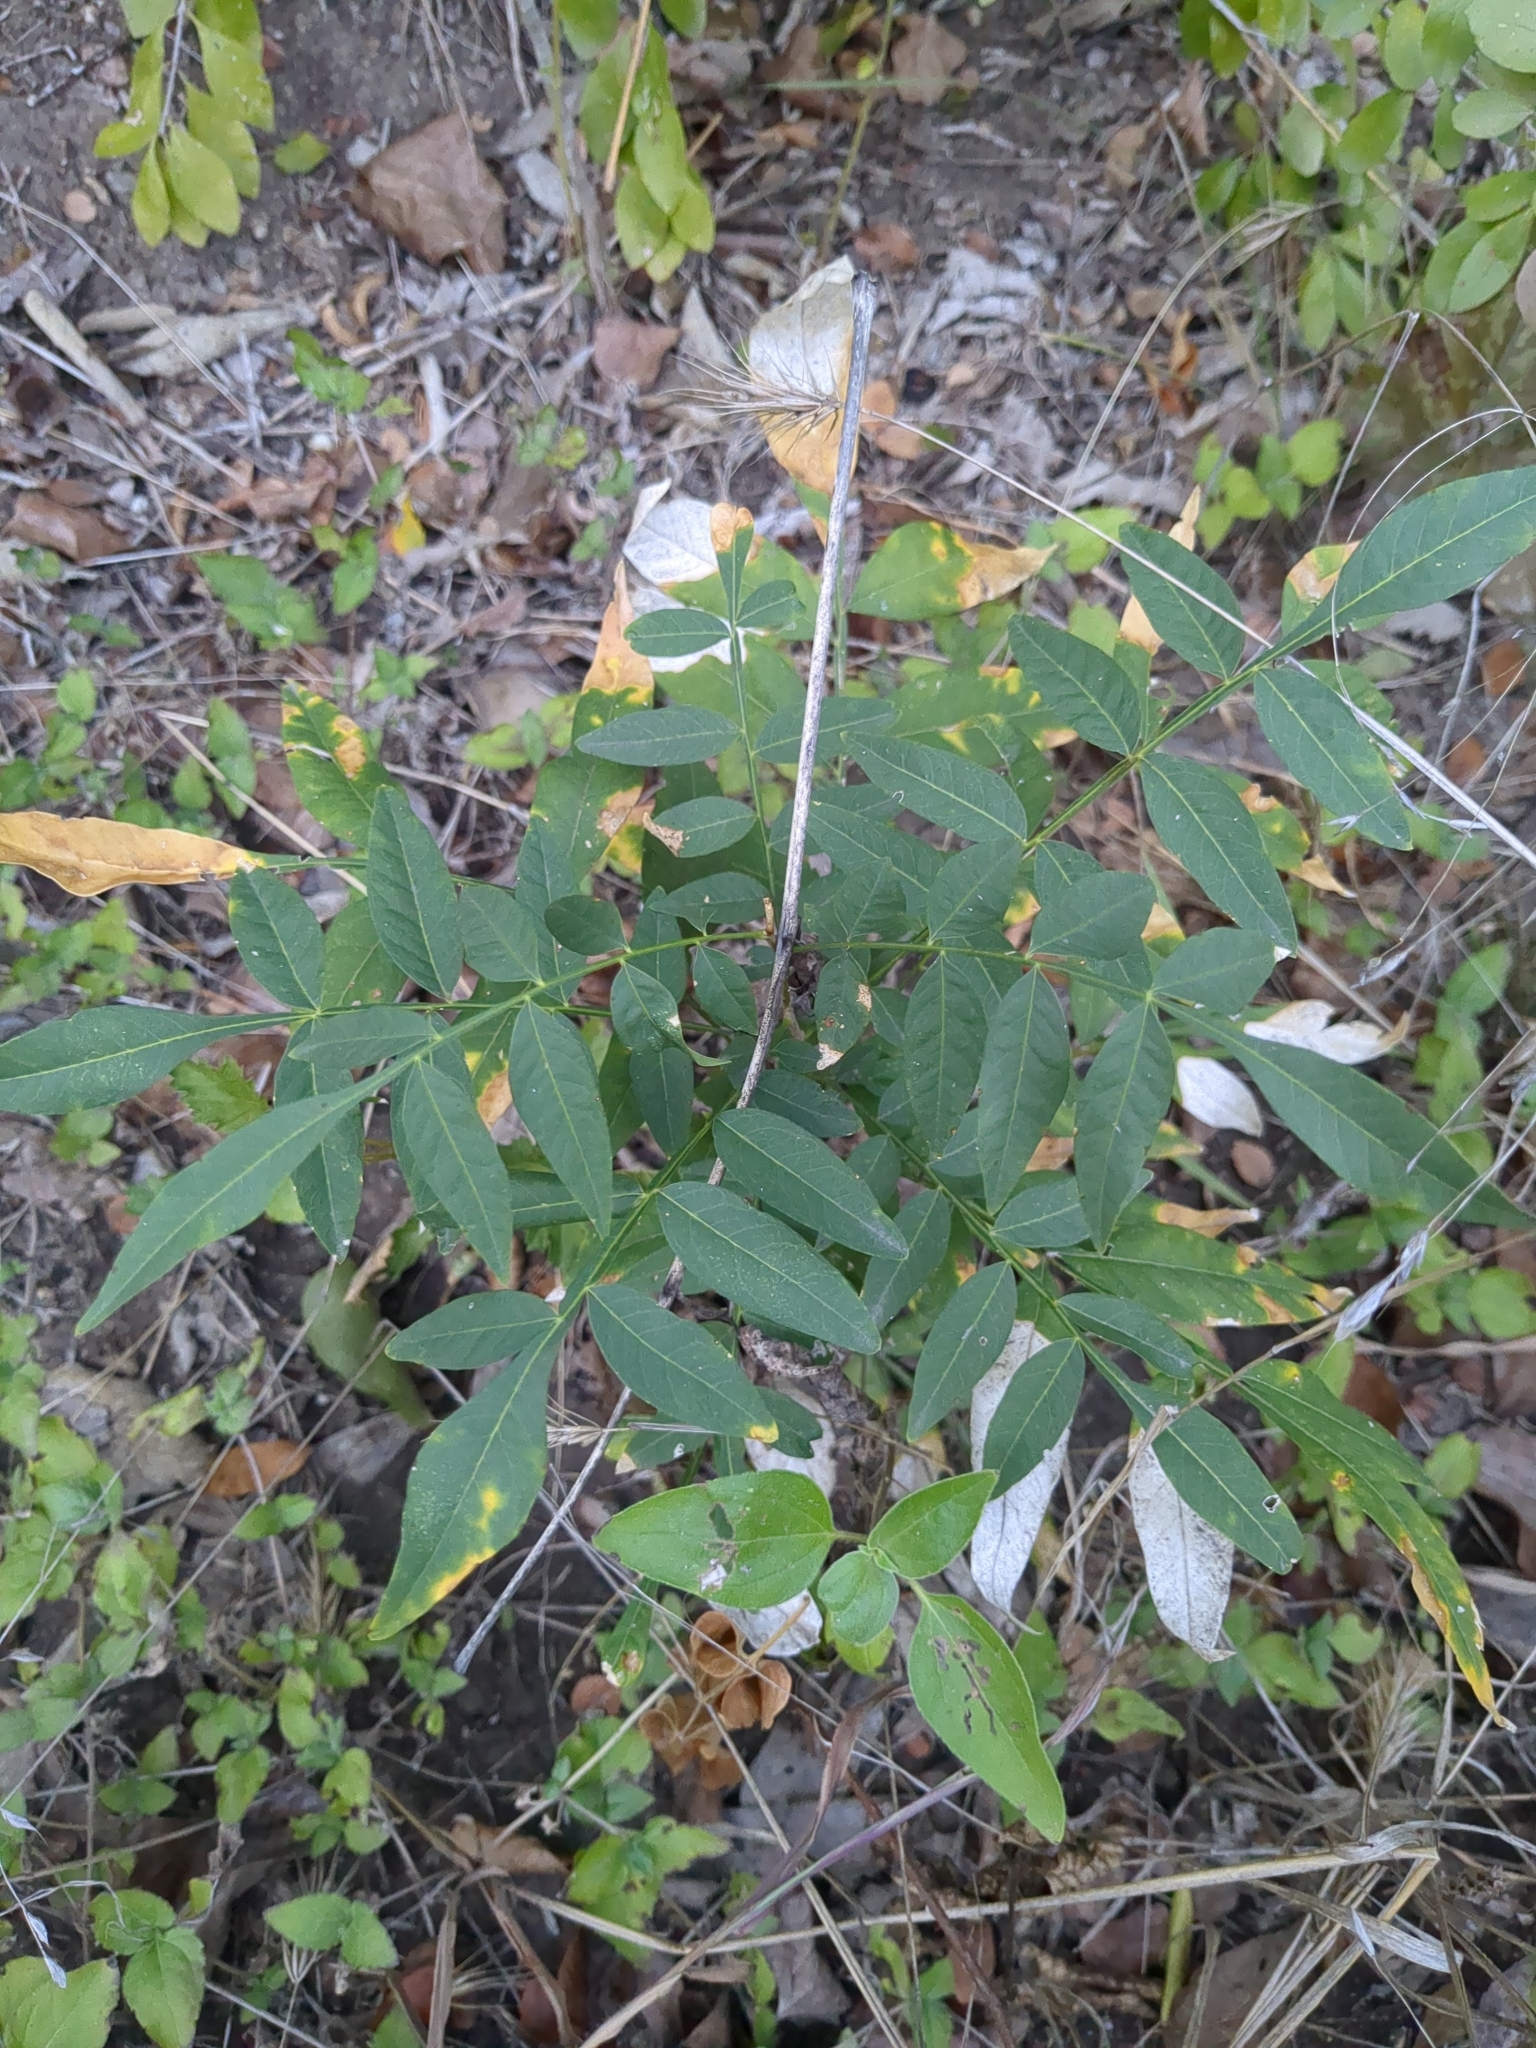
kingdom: Plantae
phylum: Tracheophyta
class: Magnoliopsida
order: Sapindales
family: Sapindaceae
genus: Sapindus
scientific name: Sapindus drummondii
